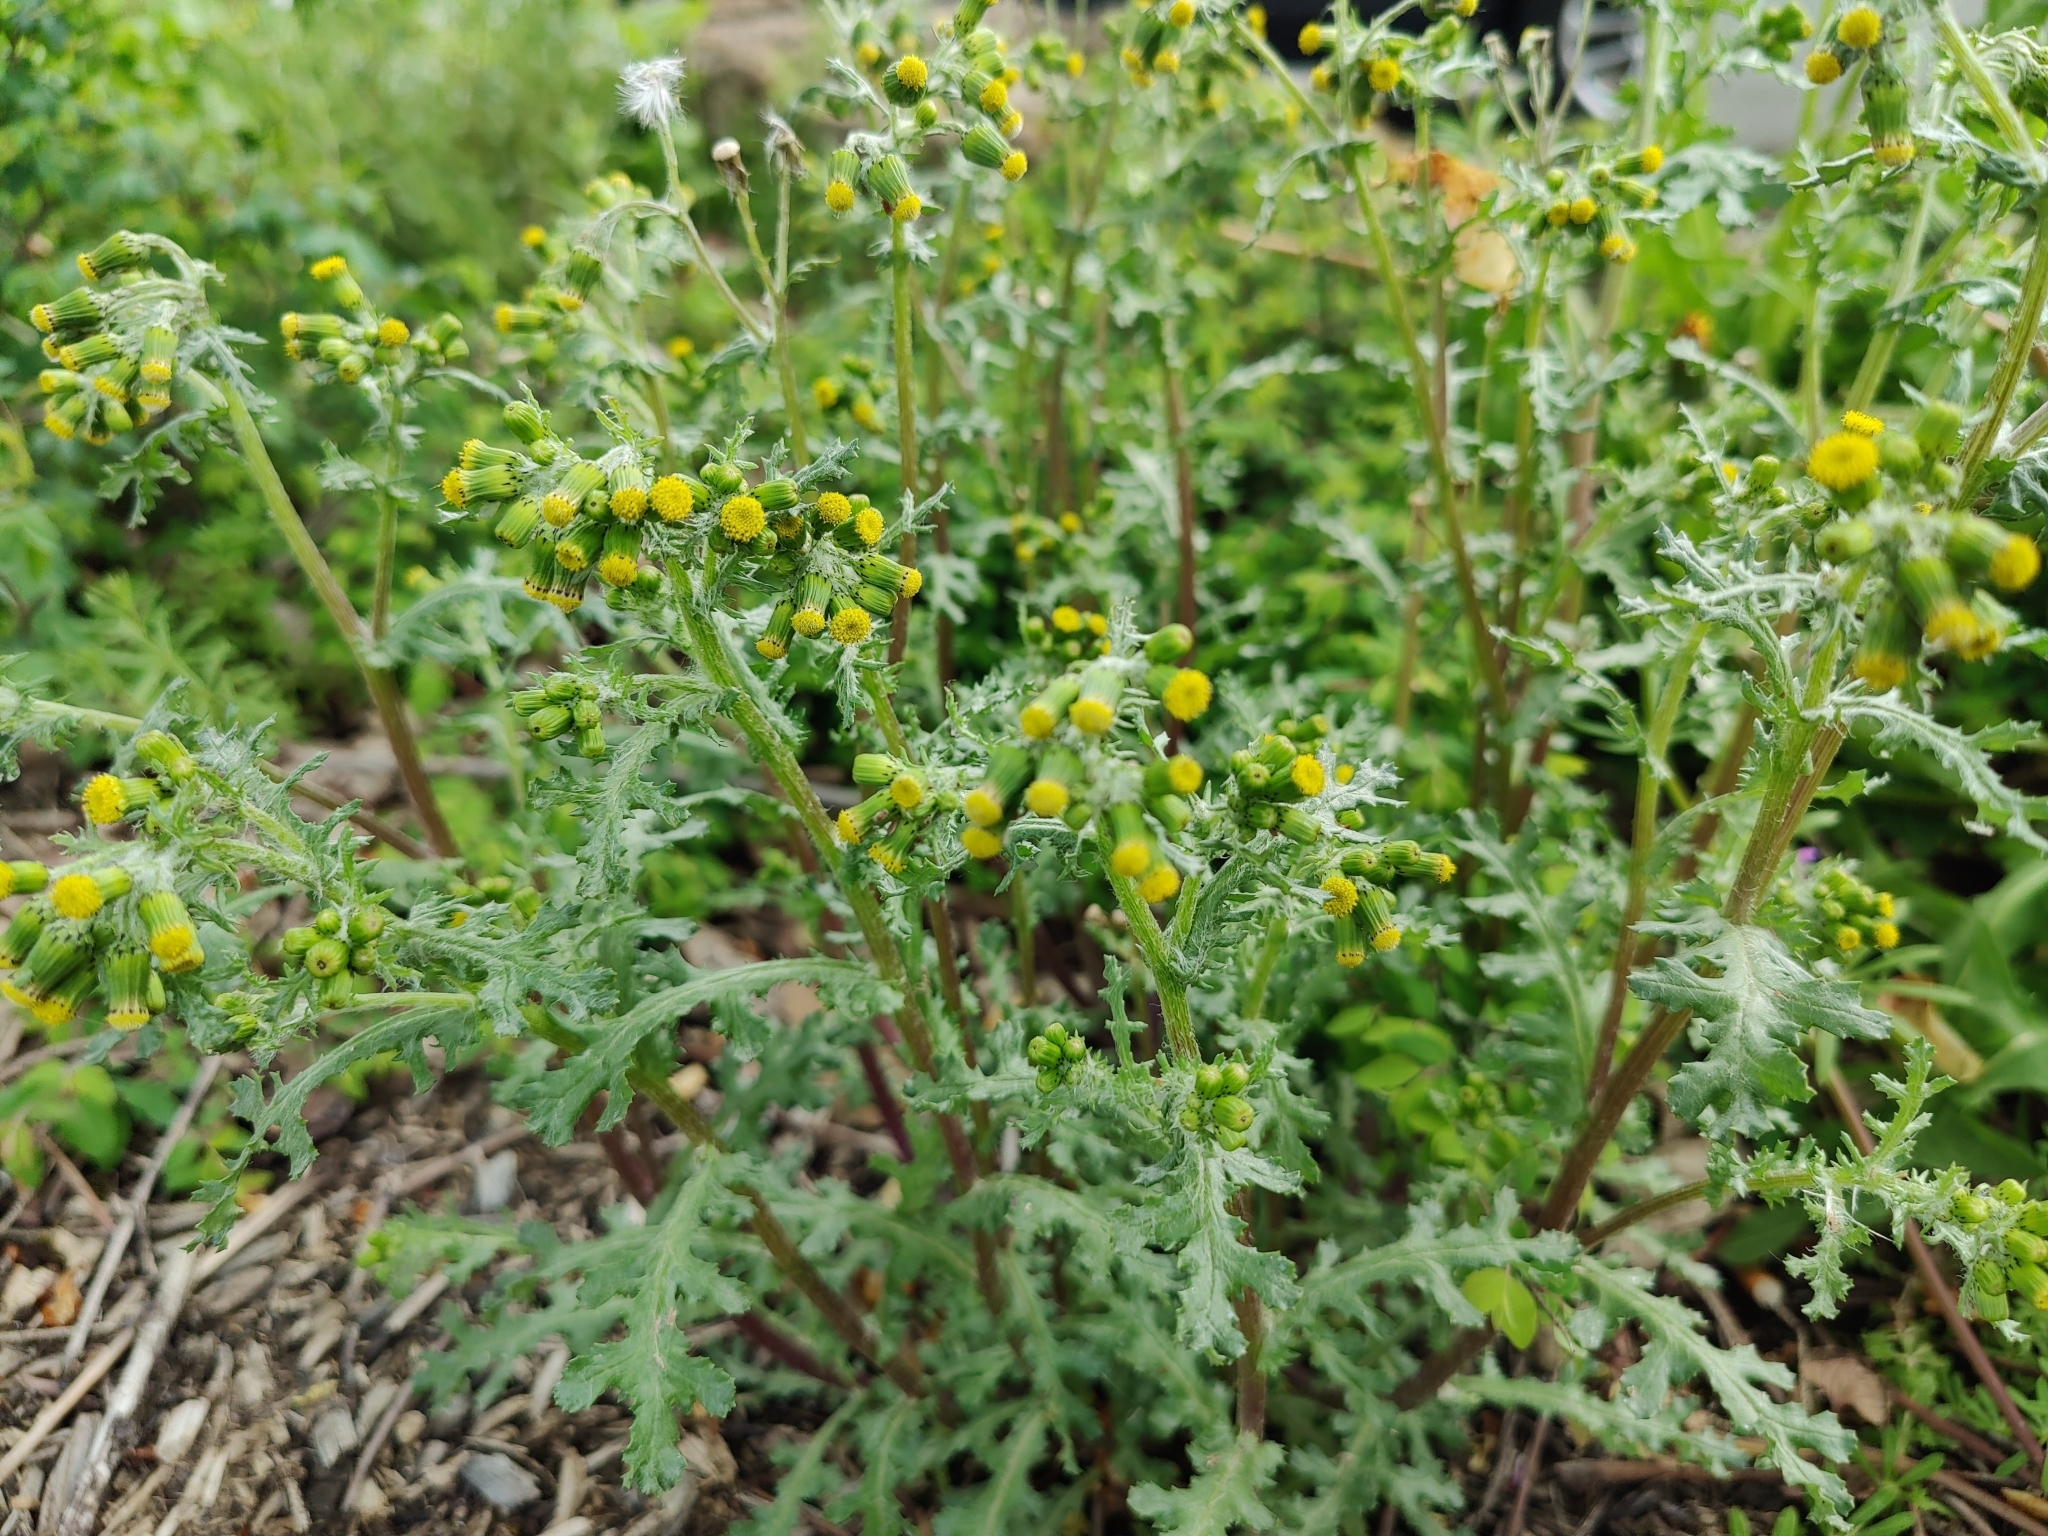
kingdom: Plantae
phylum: Tracheophyta
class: Magnoliopsida
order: Asterales
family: Asteraceae
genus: Senecio
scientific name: Senecio vulgaris
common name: Old-man-in-the-spring
